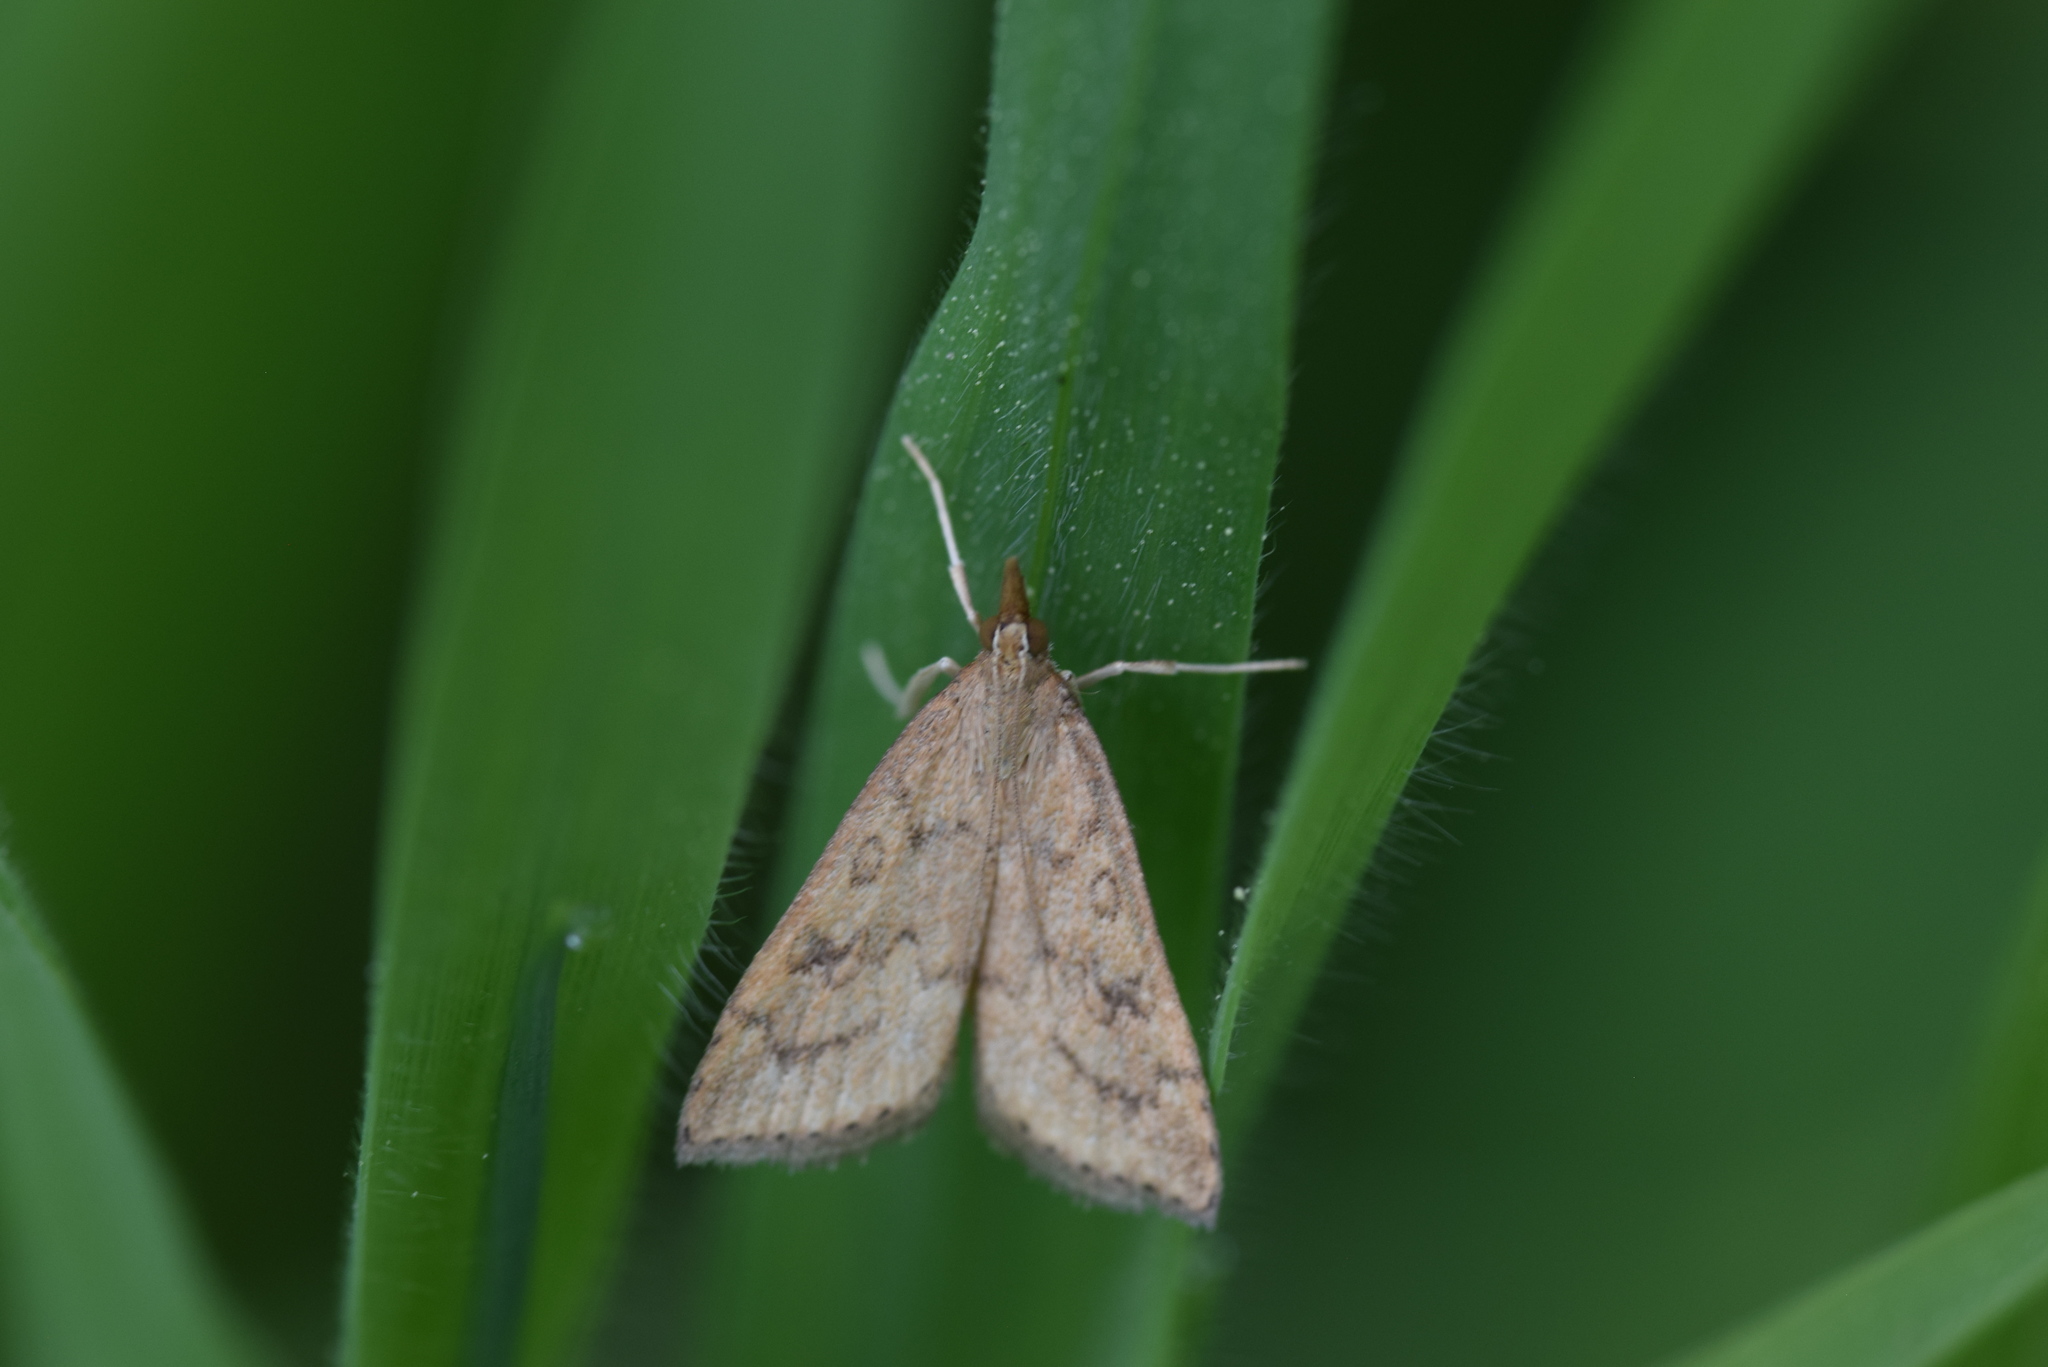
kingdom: Animalia
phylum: Arthropoda
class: Insecta
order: Lepidoptera
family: Crambidae
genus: Udea
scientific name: Udea rubigalis
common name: Celery leaftier moth
